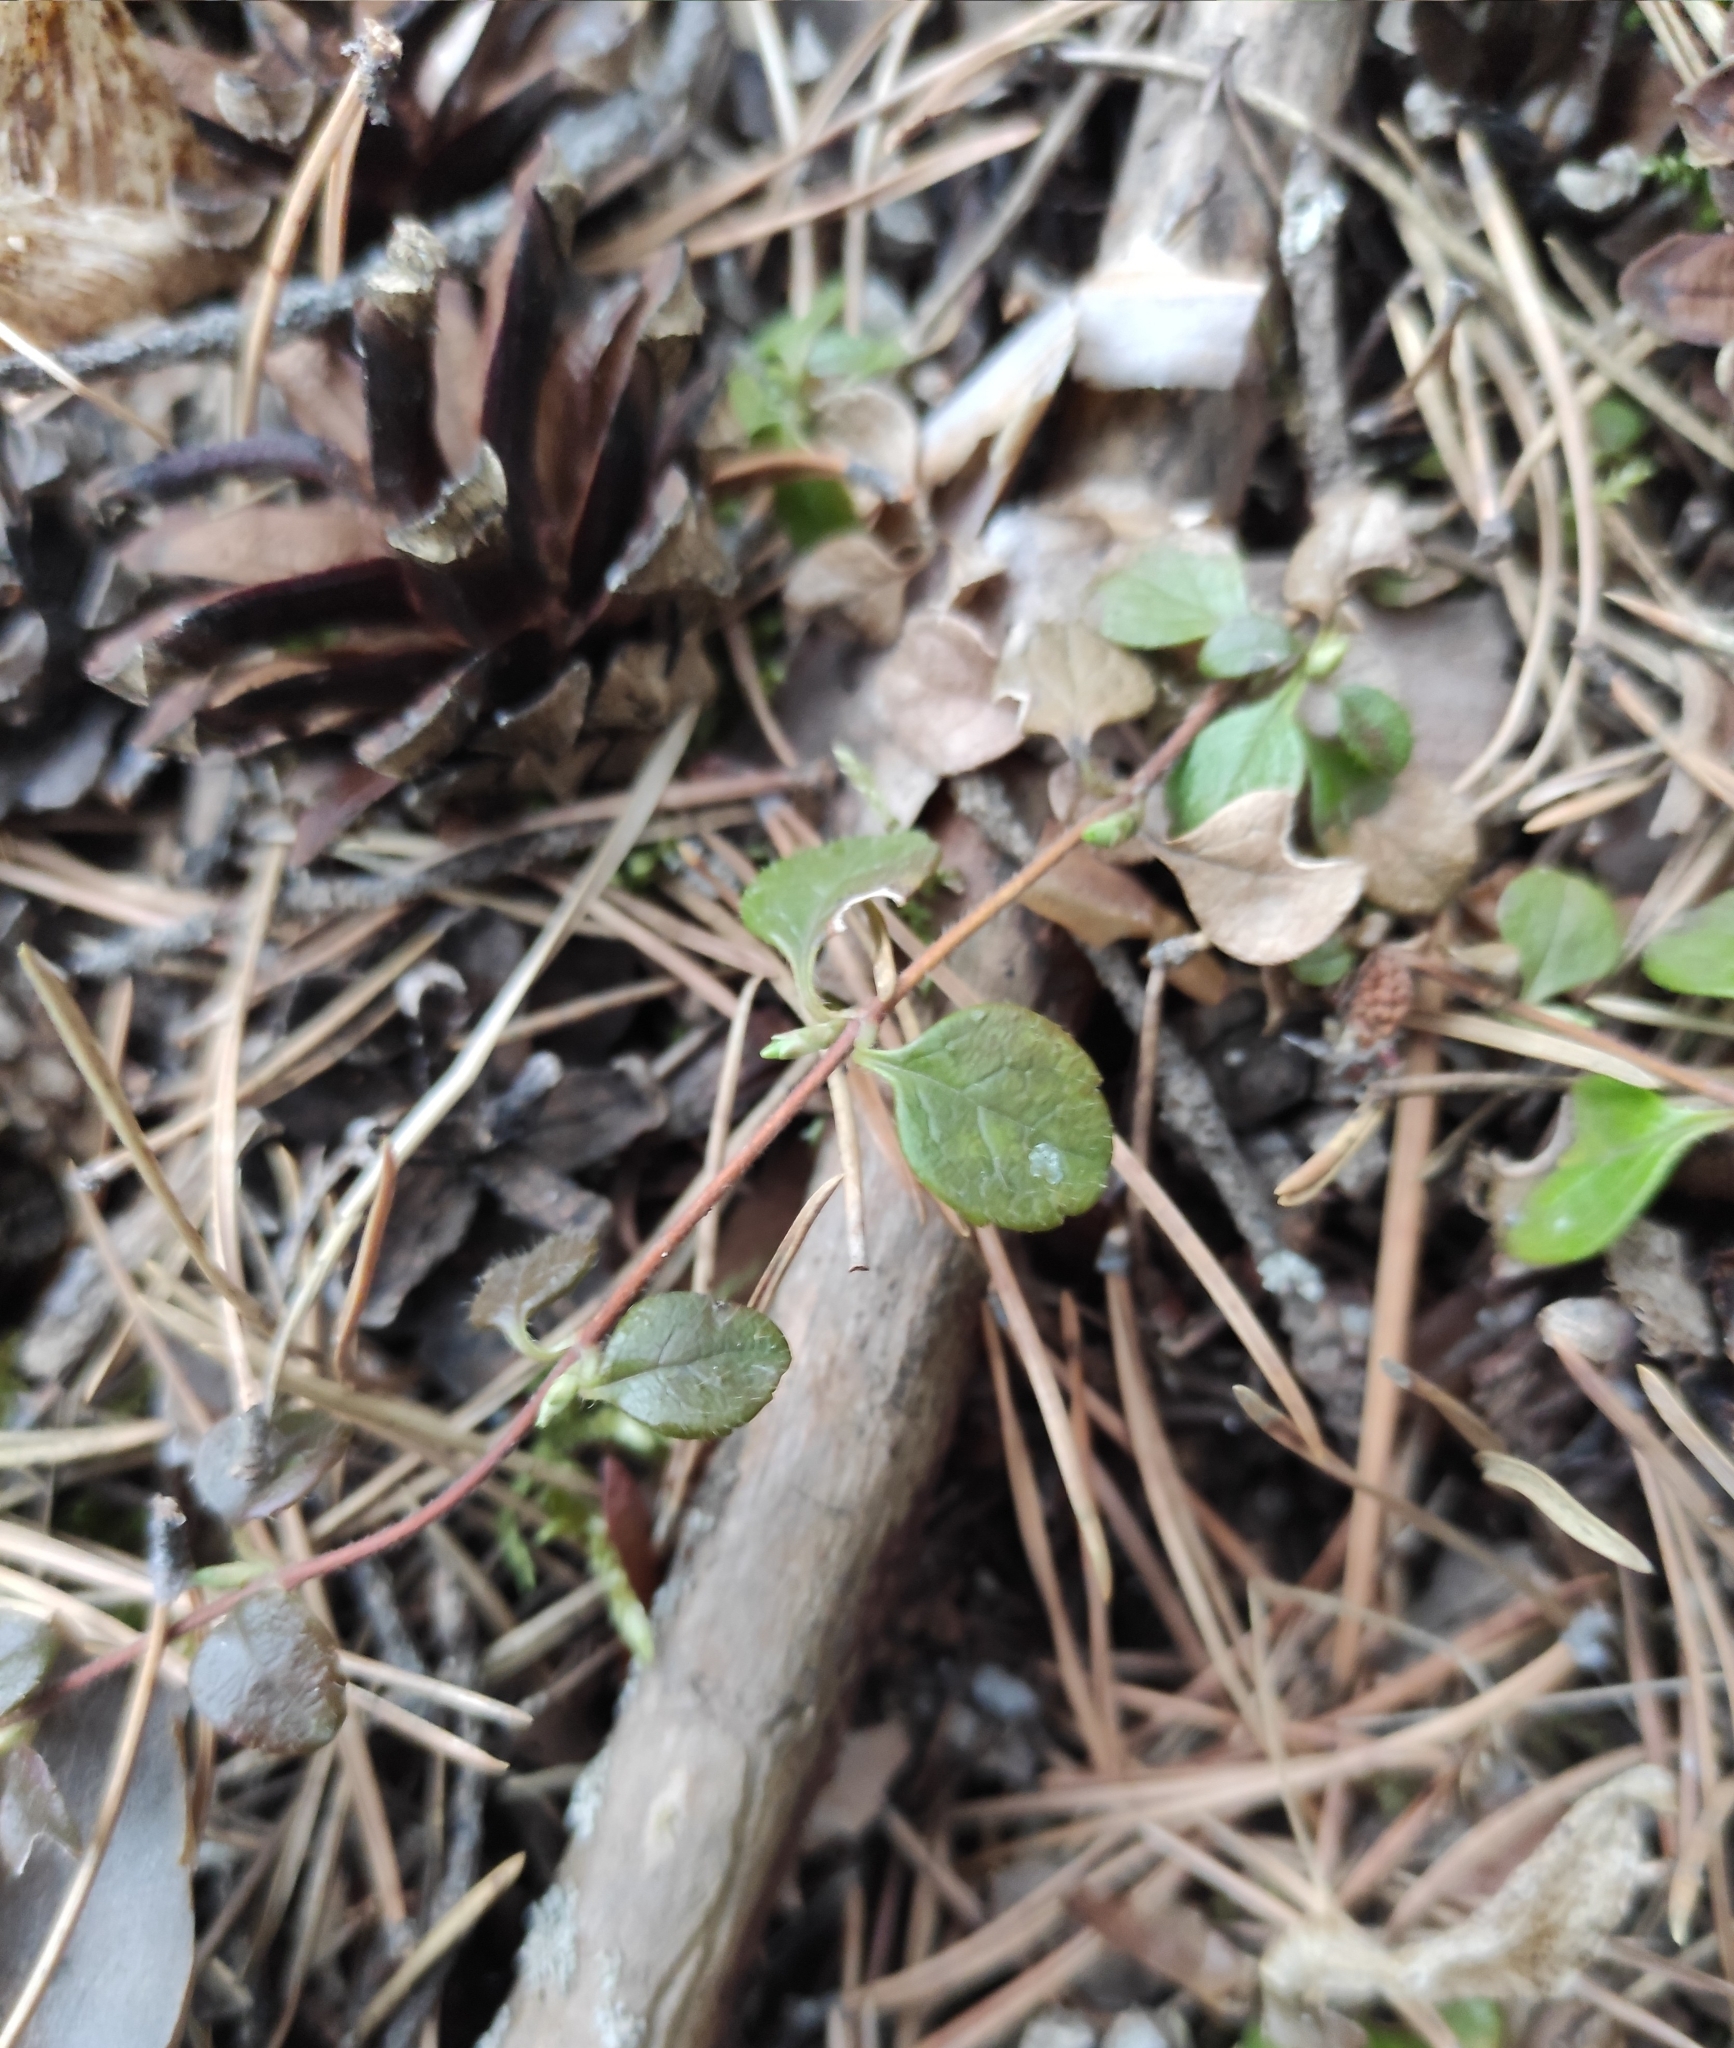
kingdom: Plantae
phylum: Tracheophyta
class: Magnoliopsida
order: Dipsacales
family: Caprifoliaceae
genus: Linnaea
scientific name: Linnaea borealis
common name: Twinflower
